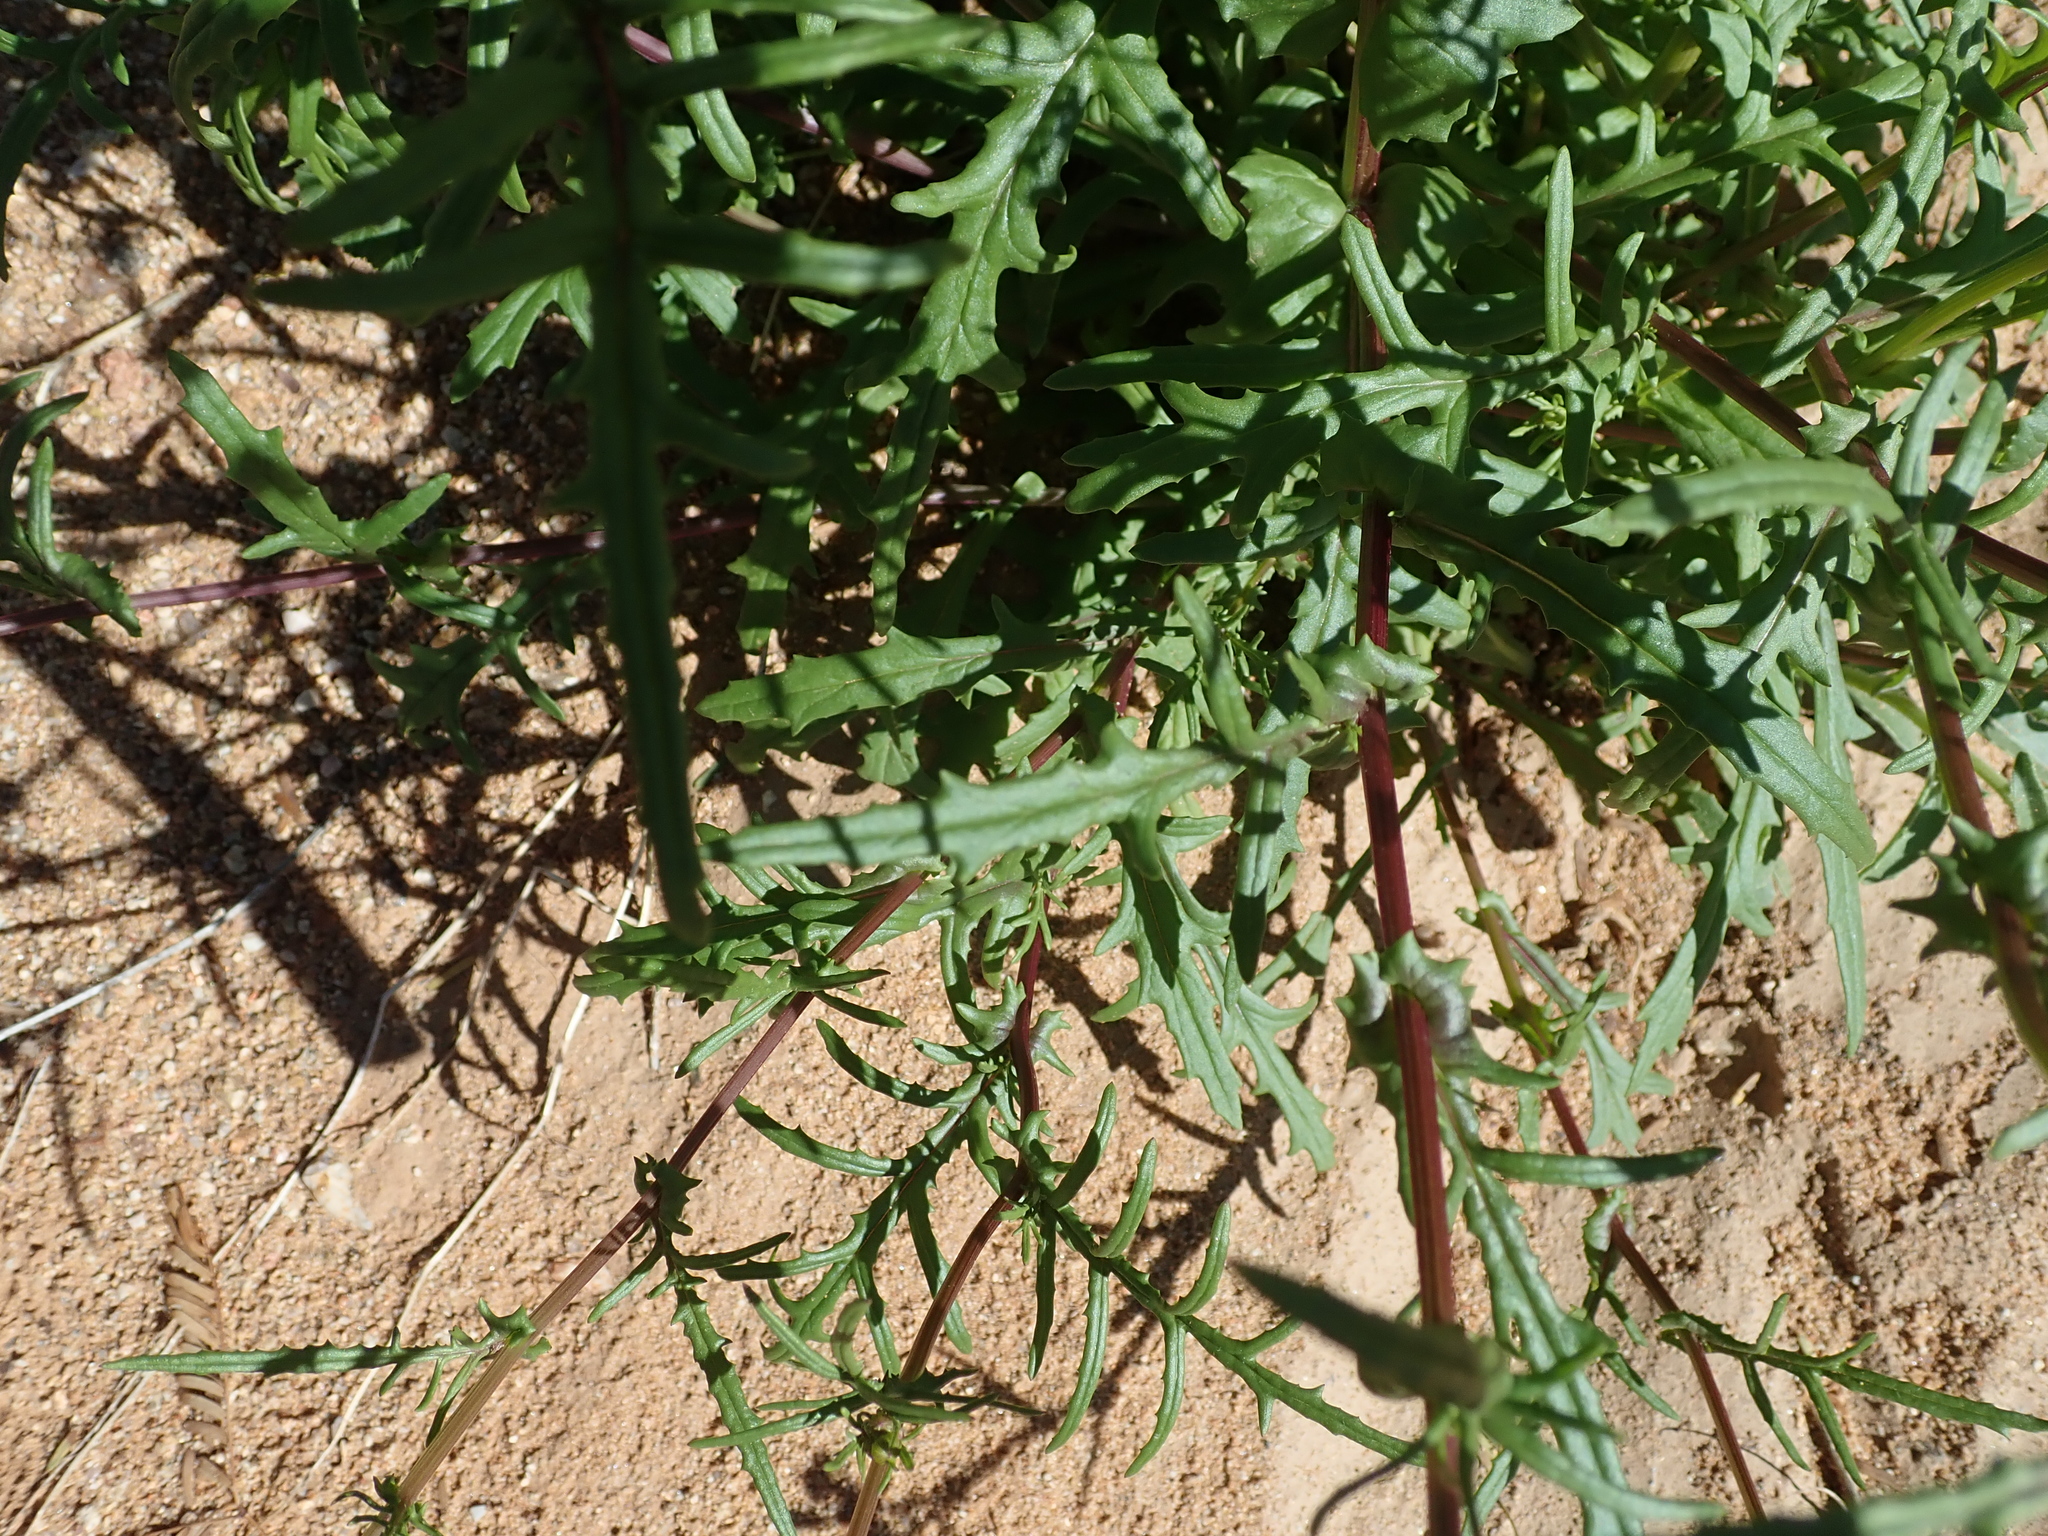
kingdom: Plantae
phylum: Tracheophyta
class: Magnoliopsida
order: Asterales
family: Asteraceae
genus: Senecio
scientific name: Senecio cardaminifolius
